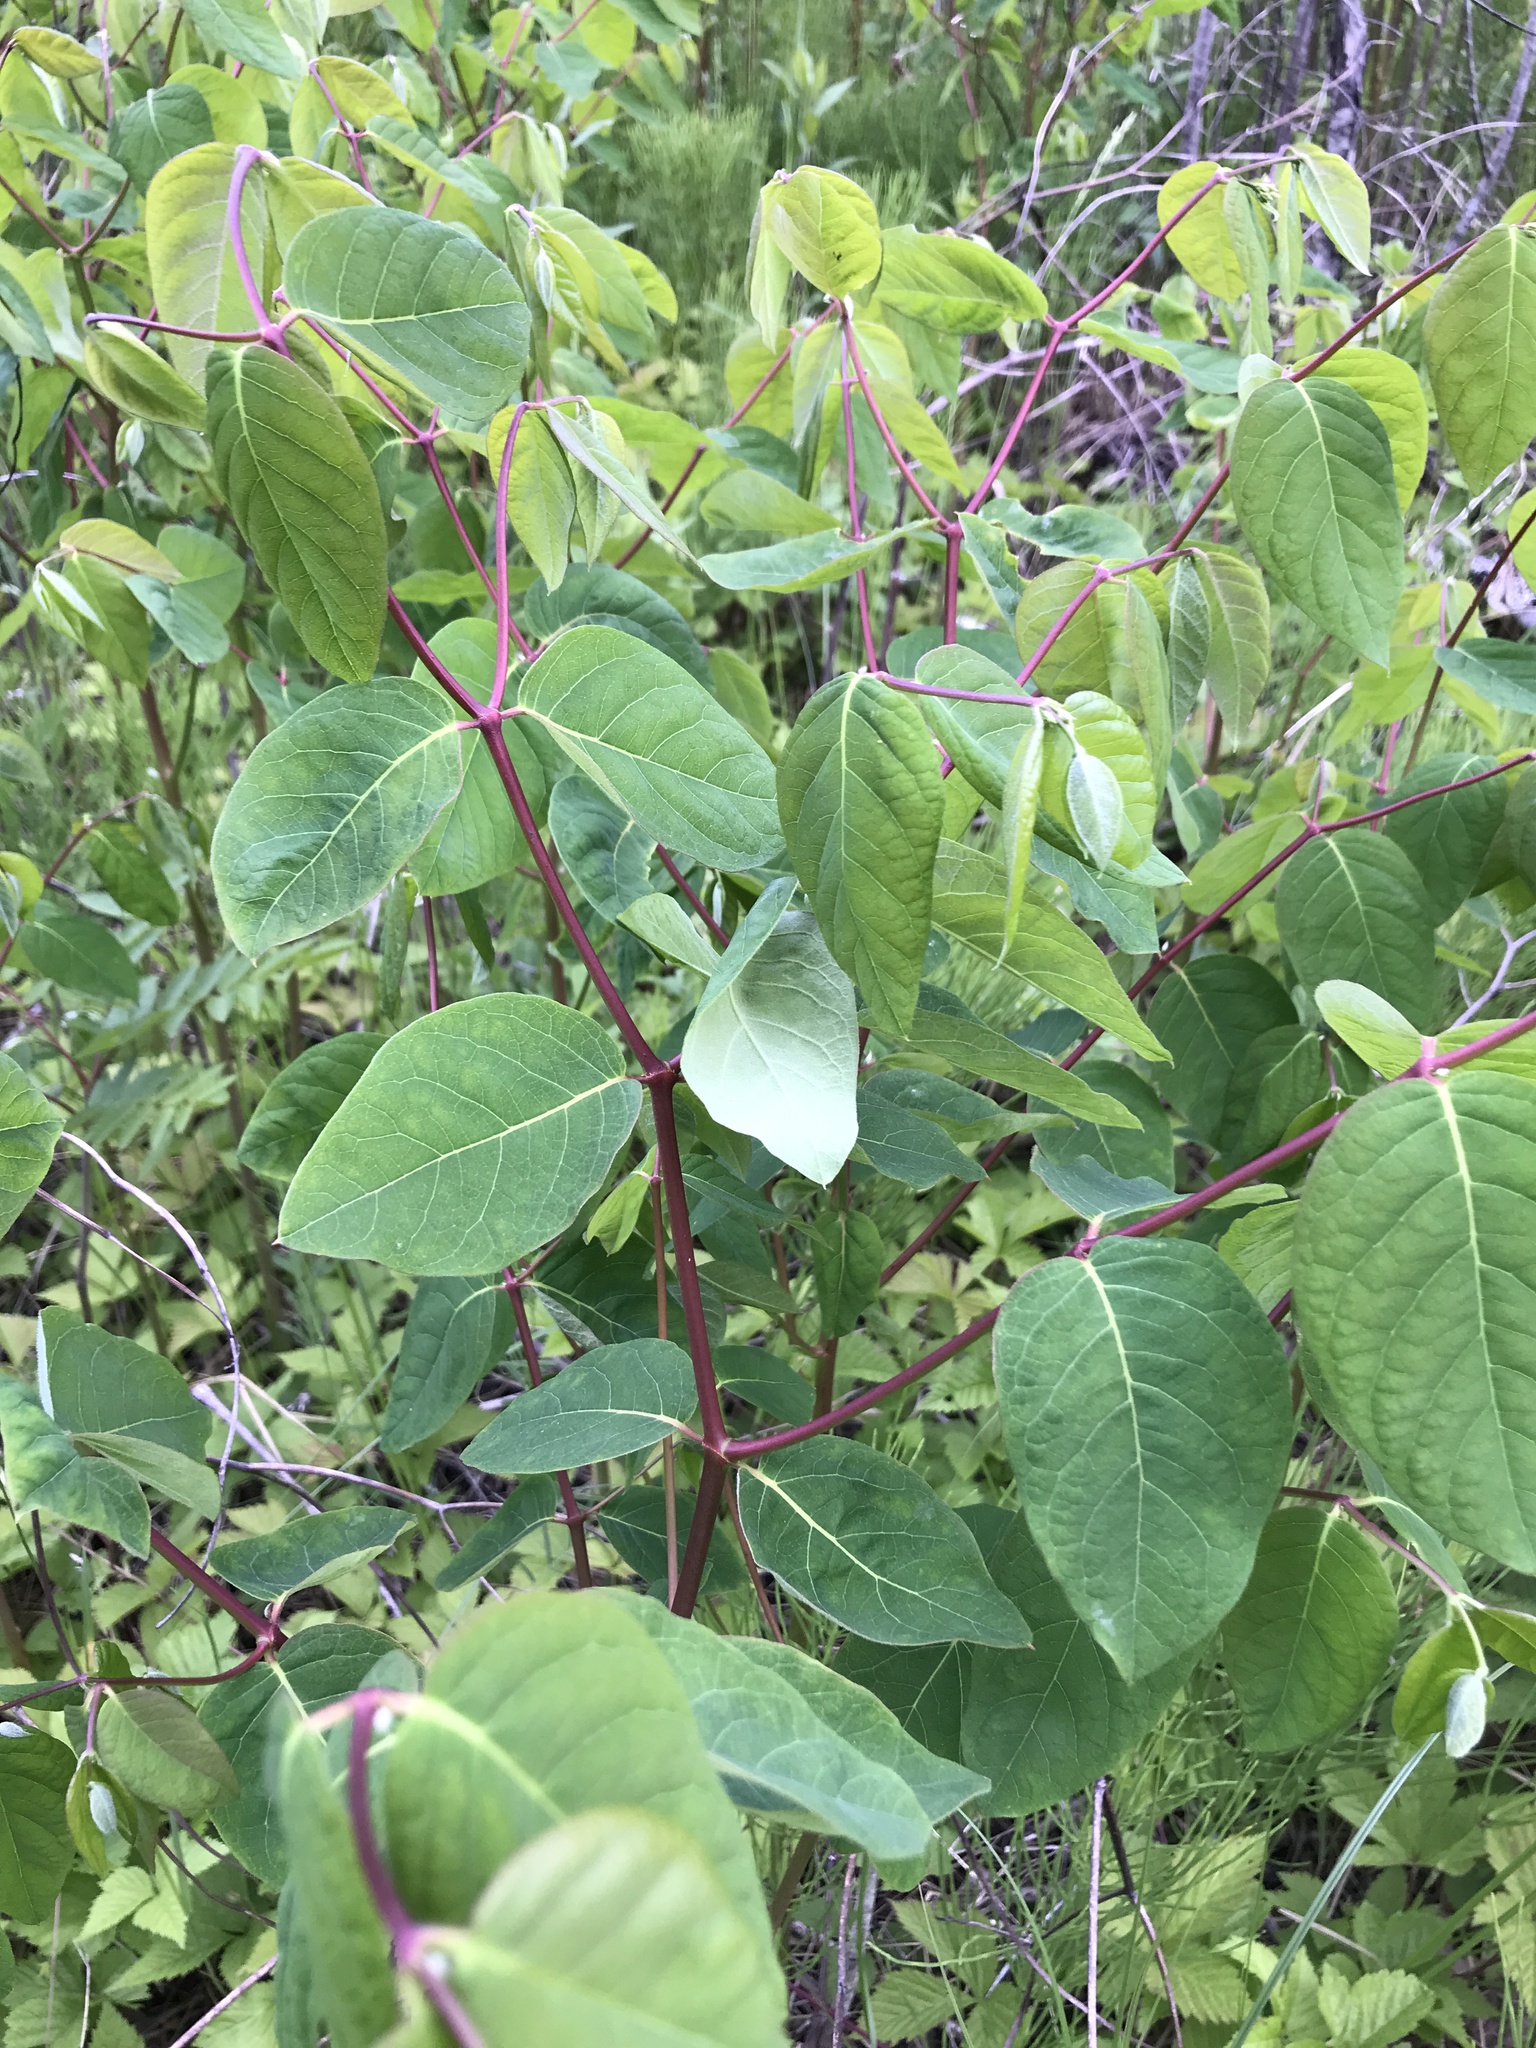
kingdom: Plantae
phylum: Tracheophyta
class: Magnoliopsida
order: Gentianales
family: Apocynaceae
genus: Apocynum
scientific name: Apocynum androsaemifolium
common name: Spreading dogbane
